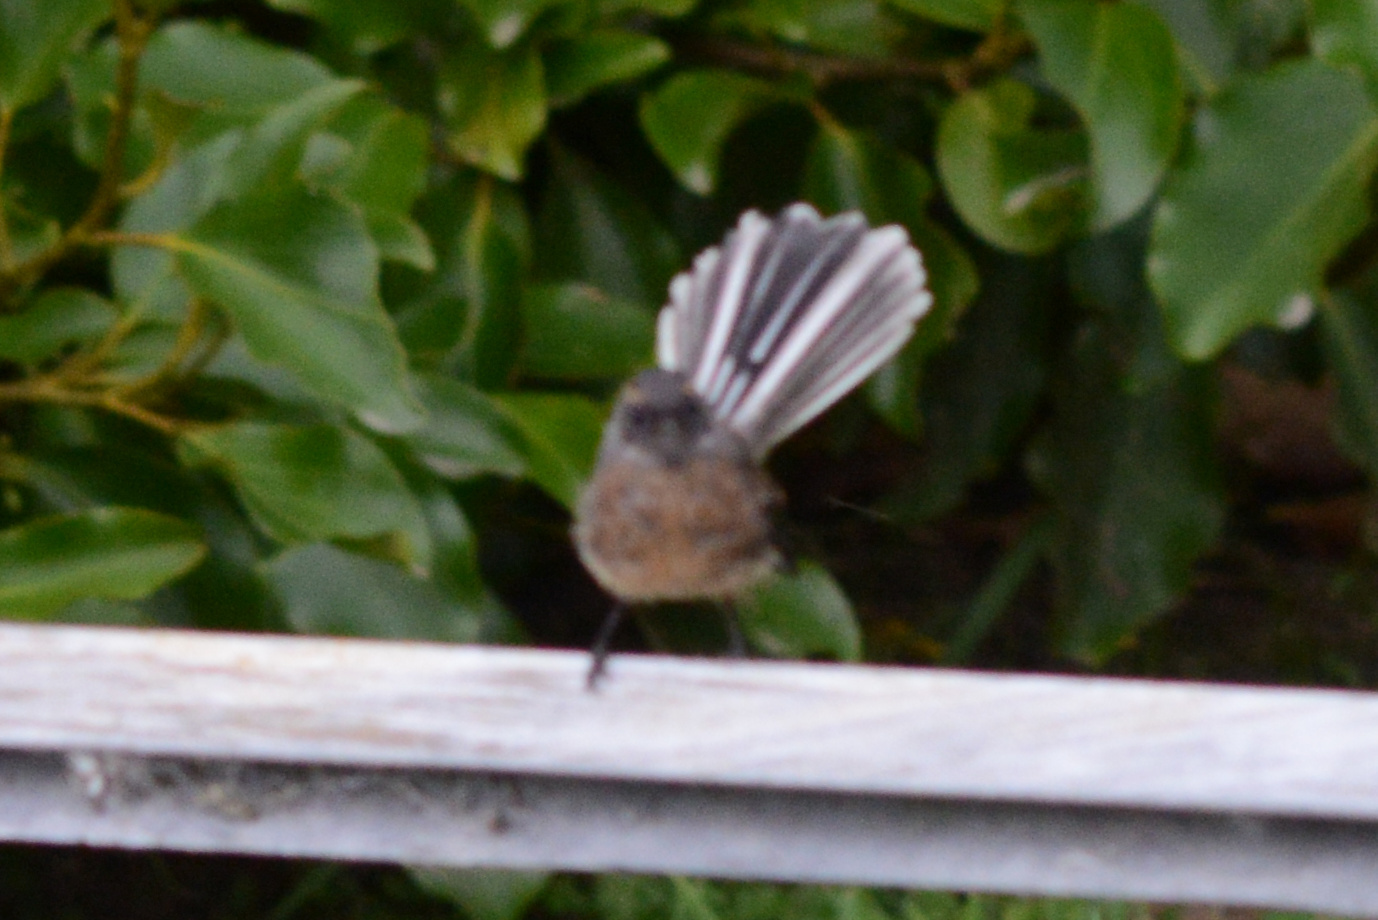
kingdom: Animalia
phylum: Chordata
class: Aves
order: Passeriformes
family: Rhipiduridae
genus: Rhipidura
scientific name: Rhipidura fuliginosa
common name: New zealand fantail
